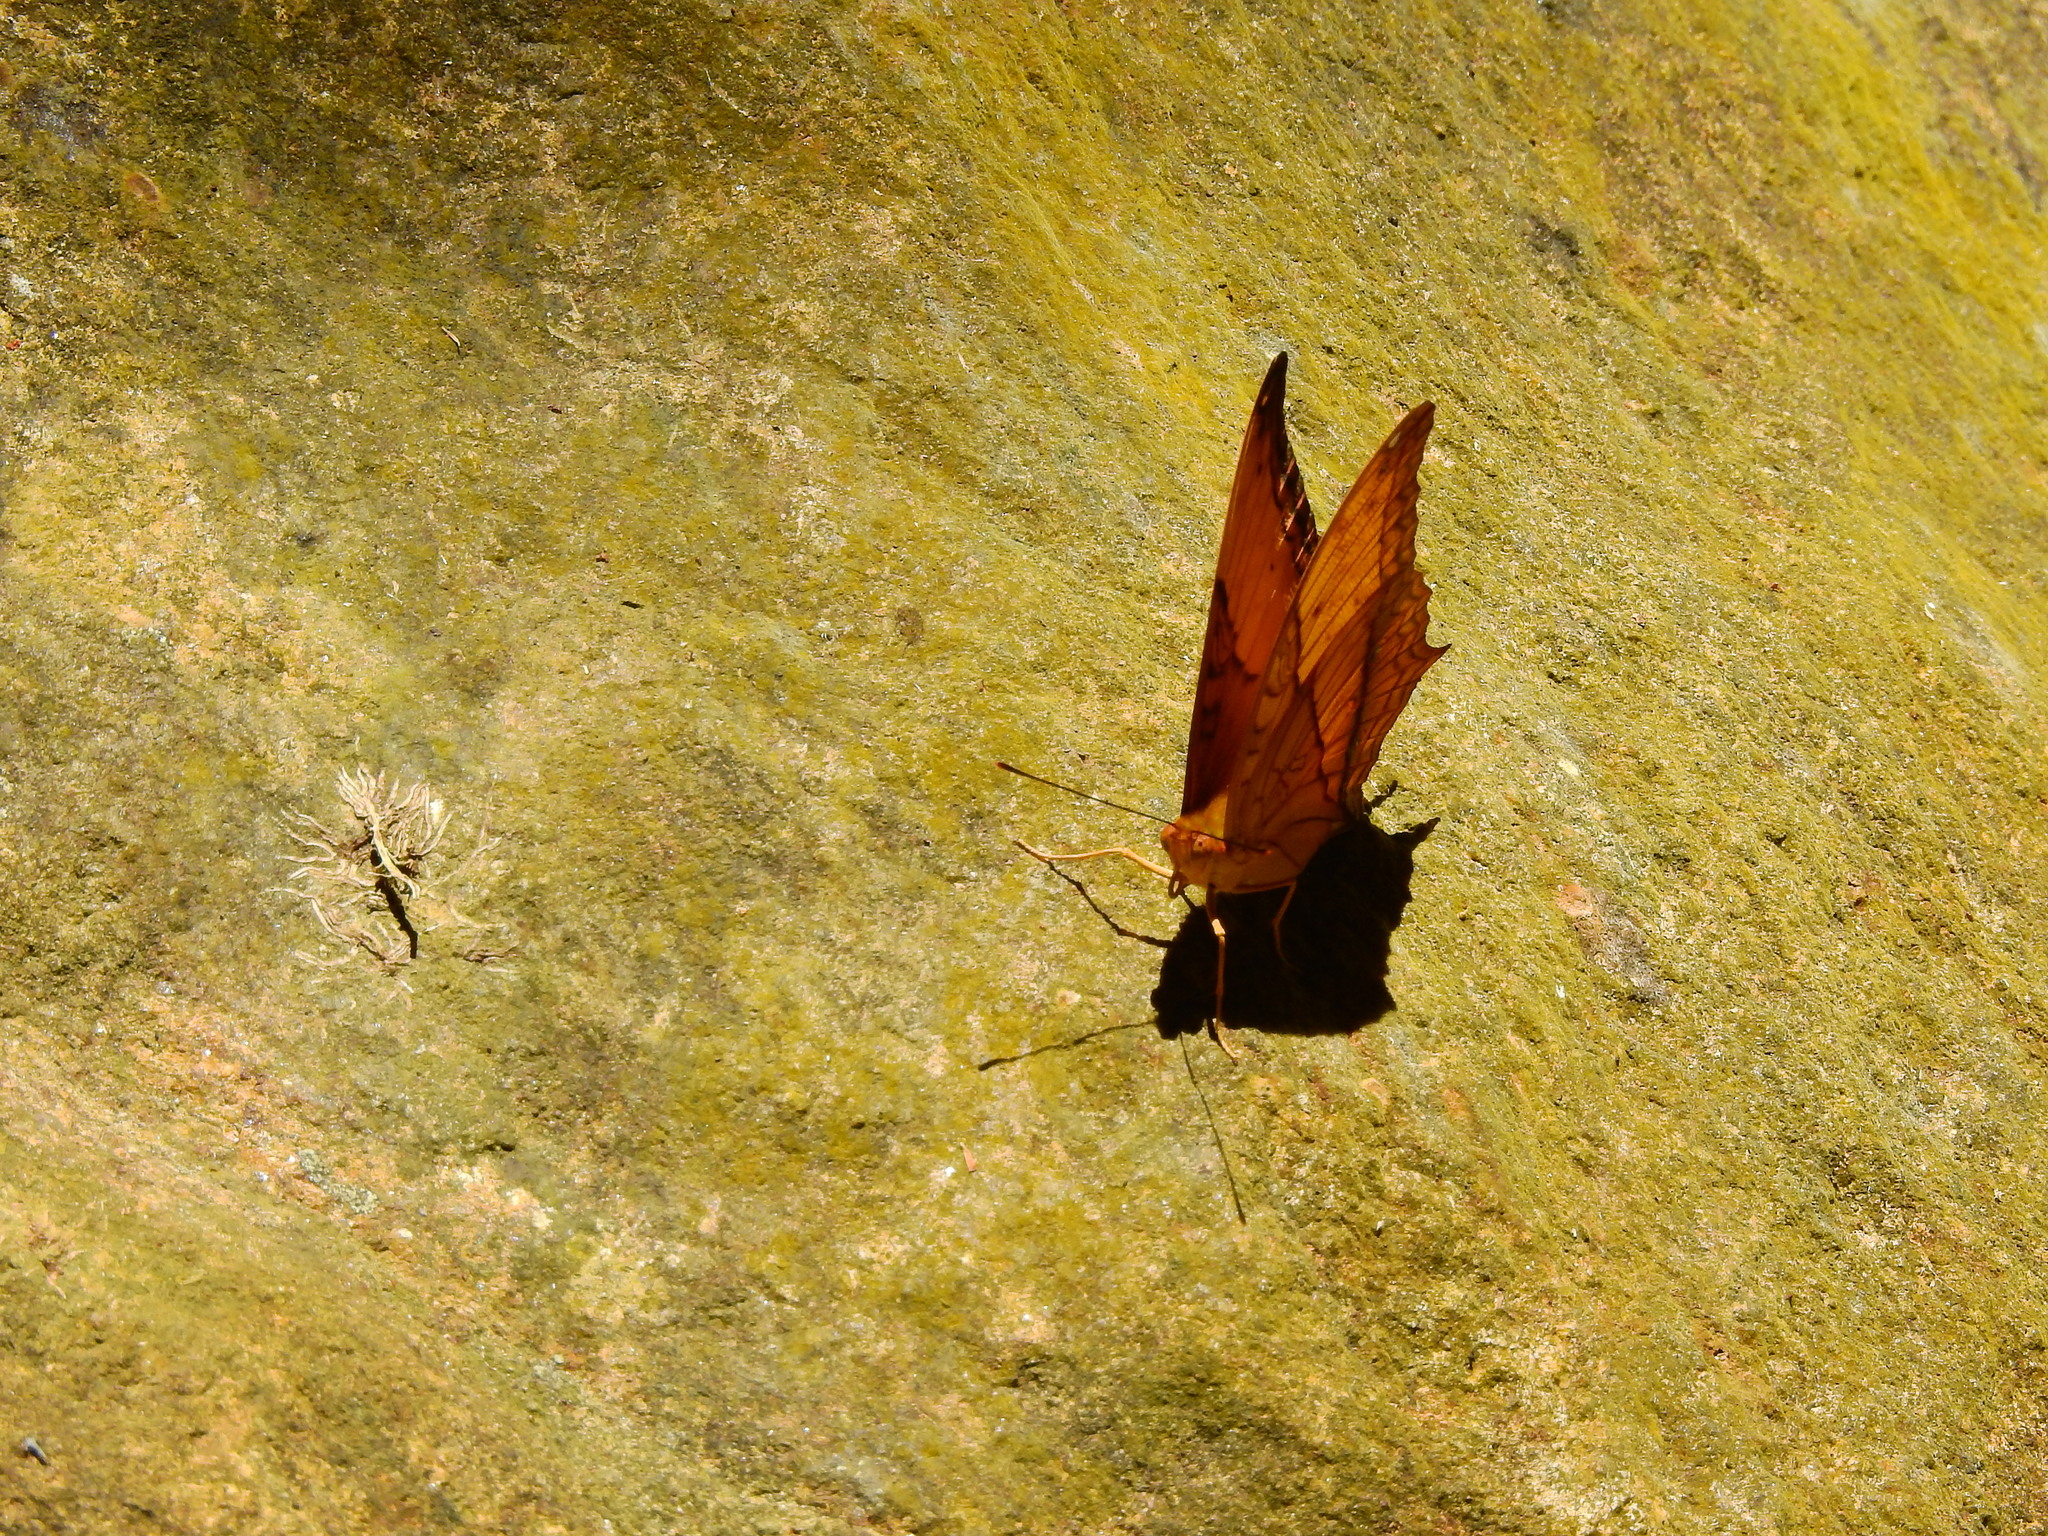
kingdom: Animalia
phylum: Arthropoda
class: Insecta
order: Lepidoptera
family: Nymphalidae
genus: Vindula
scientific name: Vindula erota
